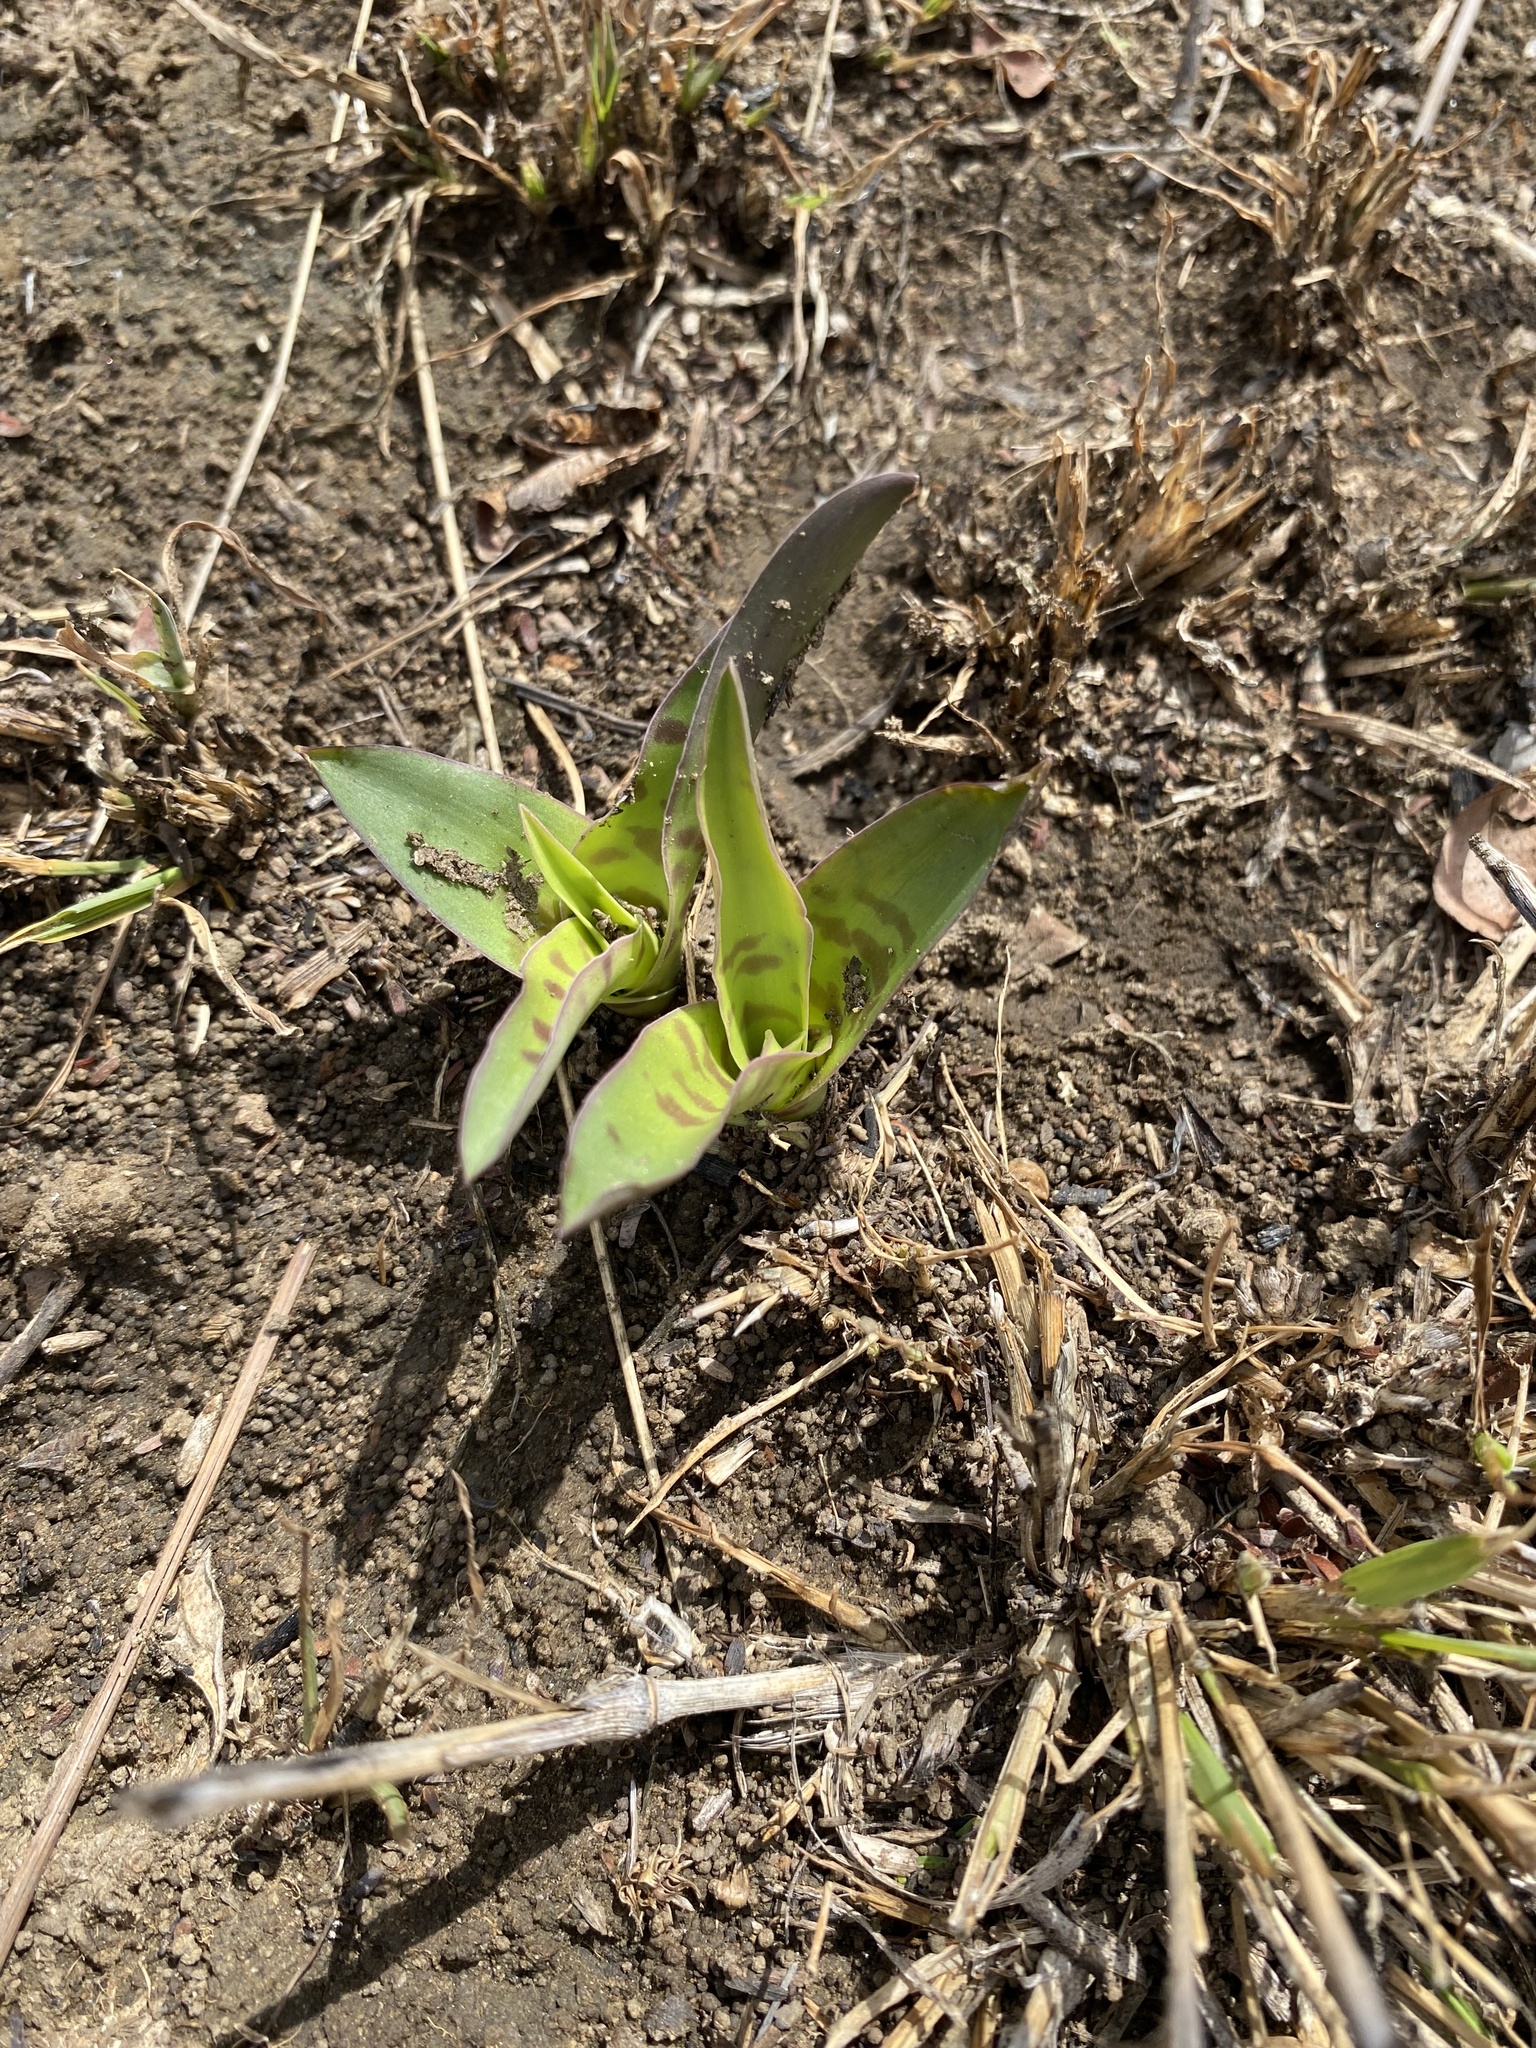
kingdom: Plantae
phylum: Tracheophyta
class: Liliopsida
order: Asparagales
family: Asparagaceae
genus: Ledebouria
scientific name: Ledebouria asperifolia
